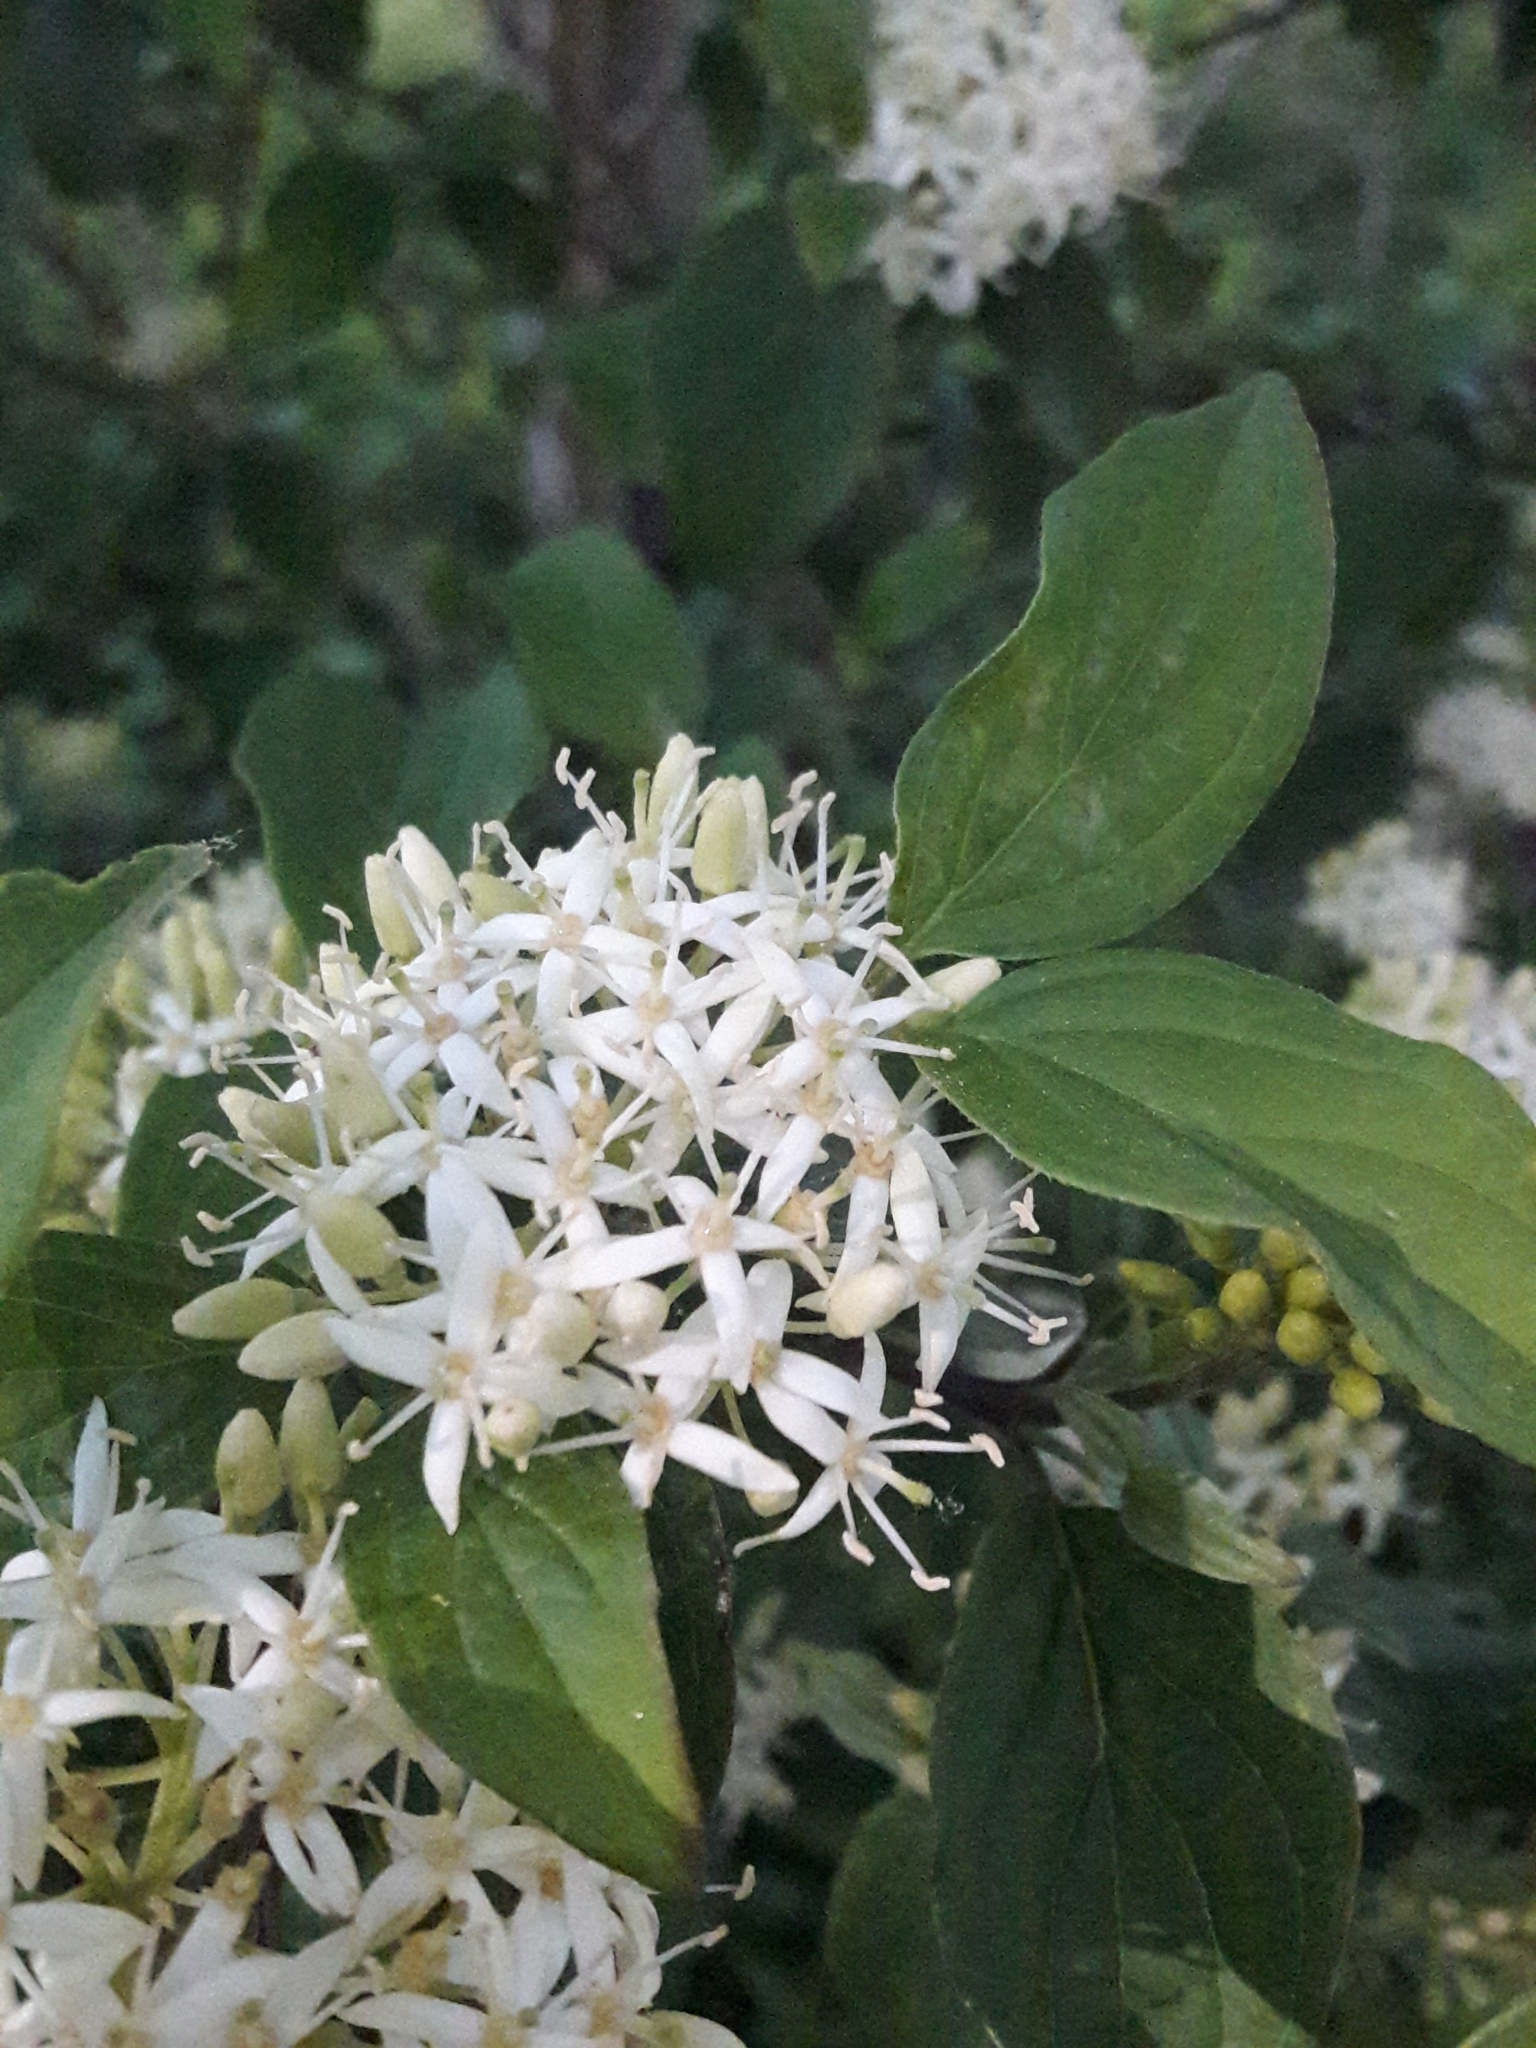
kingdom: Plantae
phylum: Tracheophyta
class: Magnoliopsida
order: Cornales
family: Cornaceae
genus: Cornus
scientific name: Cornus sanguinea
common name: Dogwood
